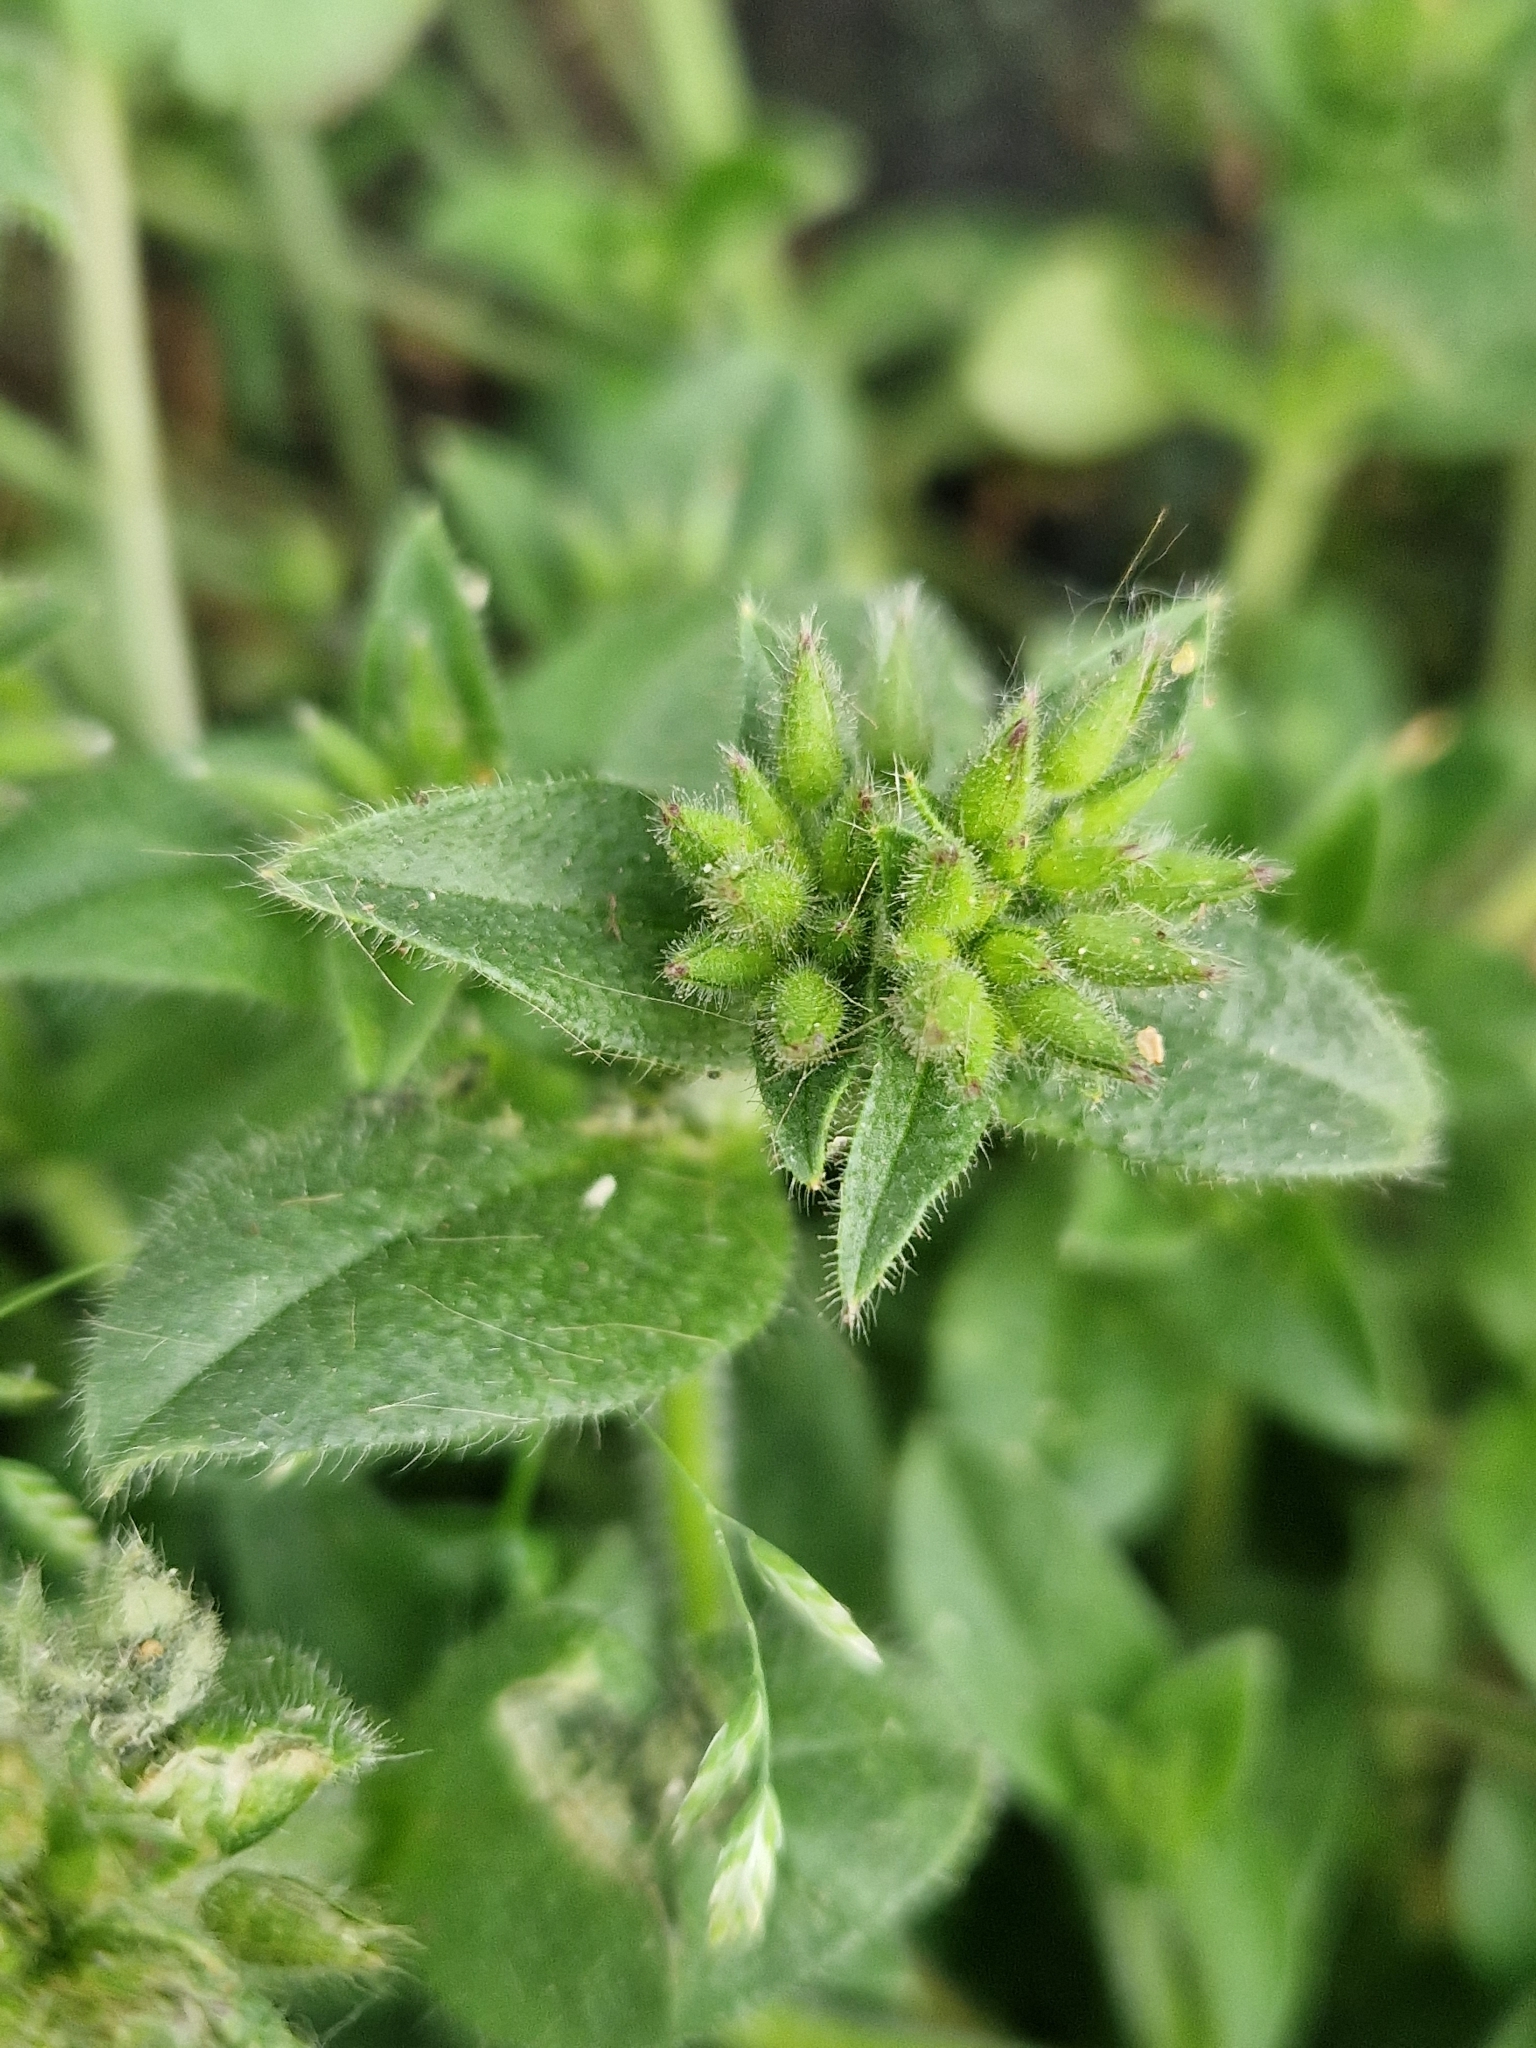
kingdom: Plantae
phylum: Tracheophyta
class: Magnoliopsida
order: Caryophyllales
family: Caryophyllaceae
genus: Cerastium
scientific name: Cerastium glomeratum
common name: Sticky chickweed
